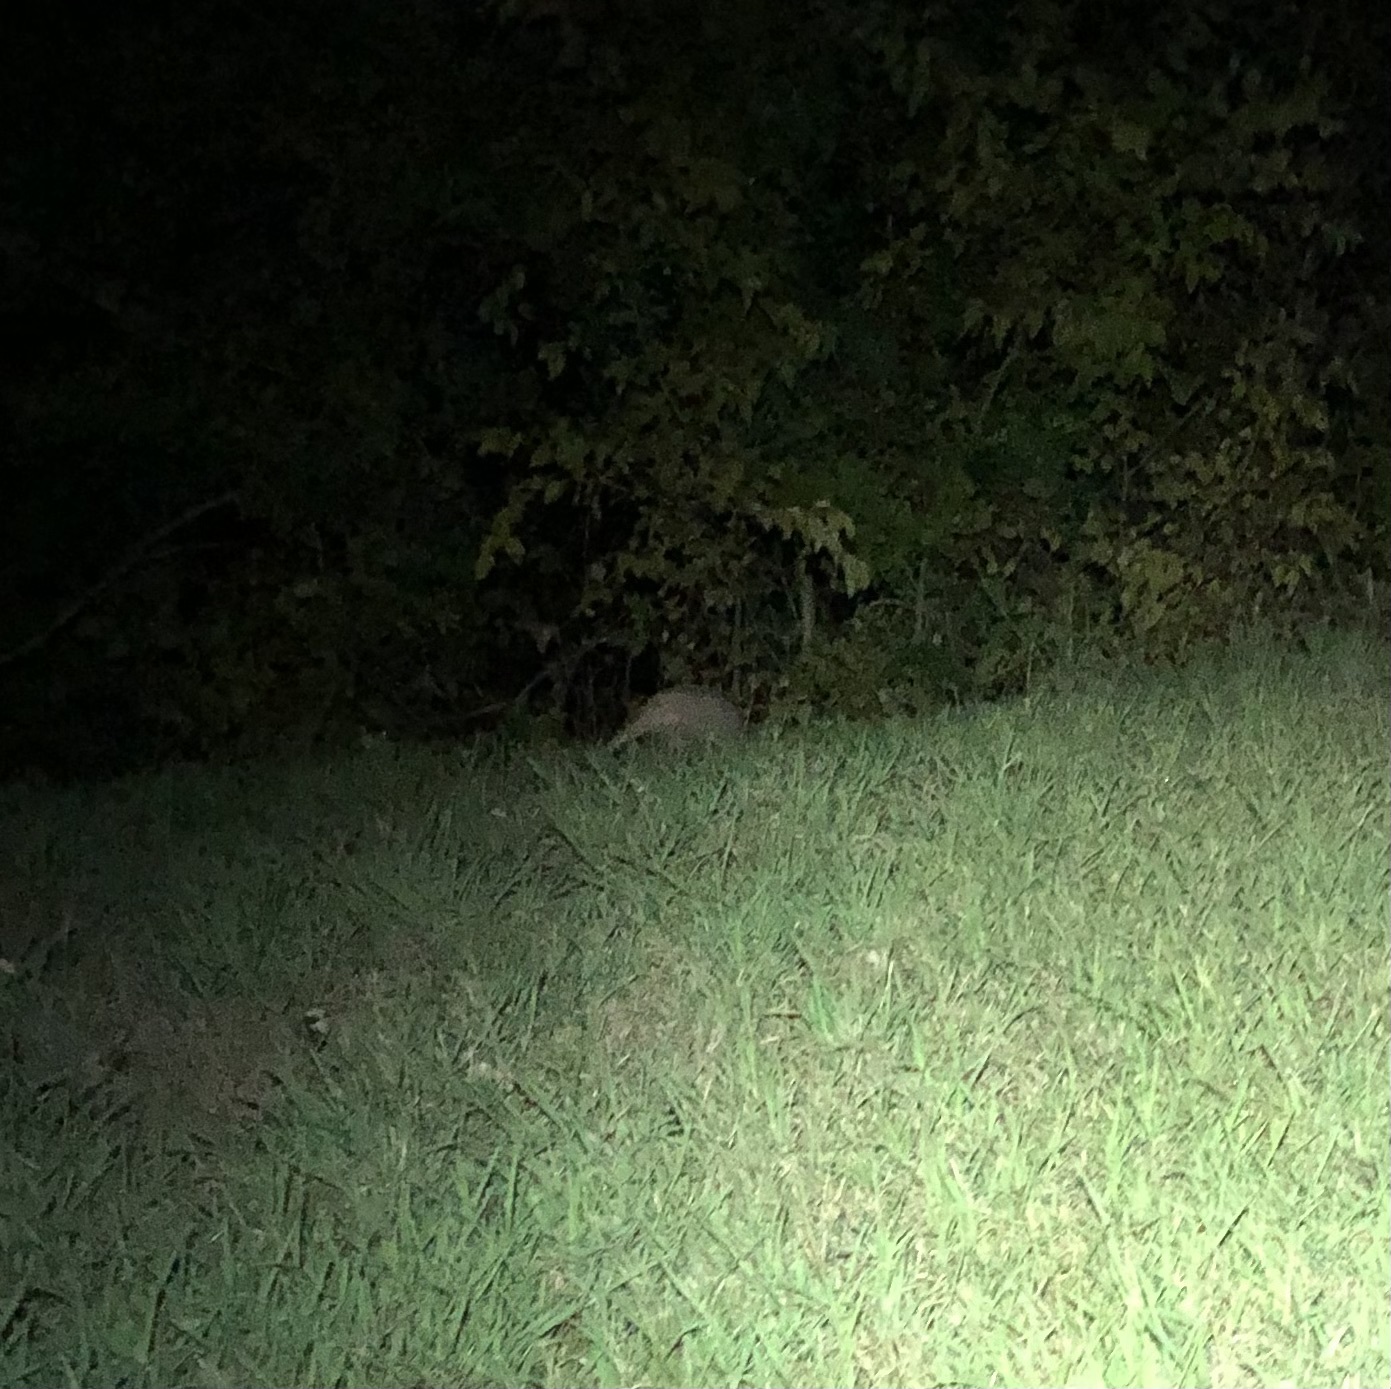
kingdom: Animalia
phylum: Chordata
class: Mammalia
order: Cingulata
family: Dasypodidae
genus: Dasypus
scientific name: Dasypus novemcinctus
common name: Nine-banded armadillo
